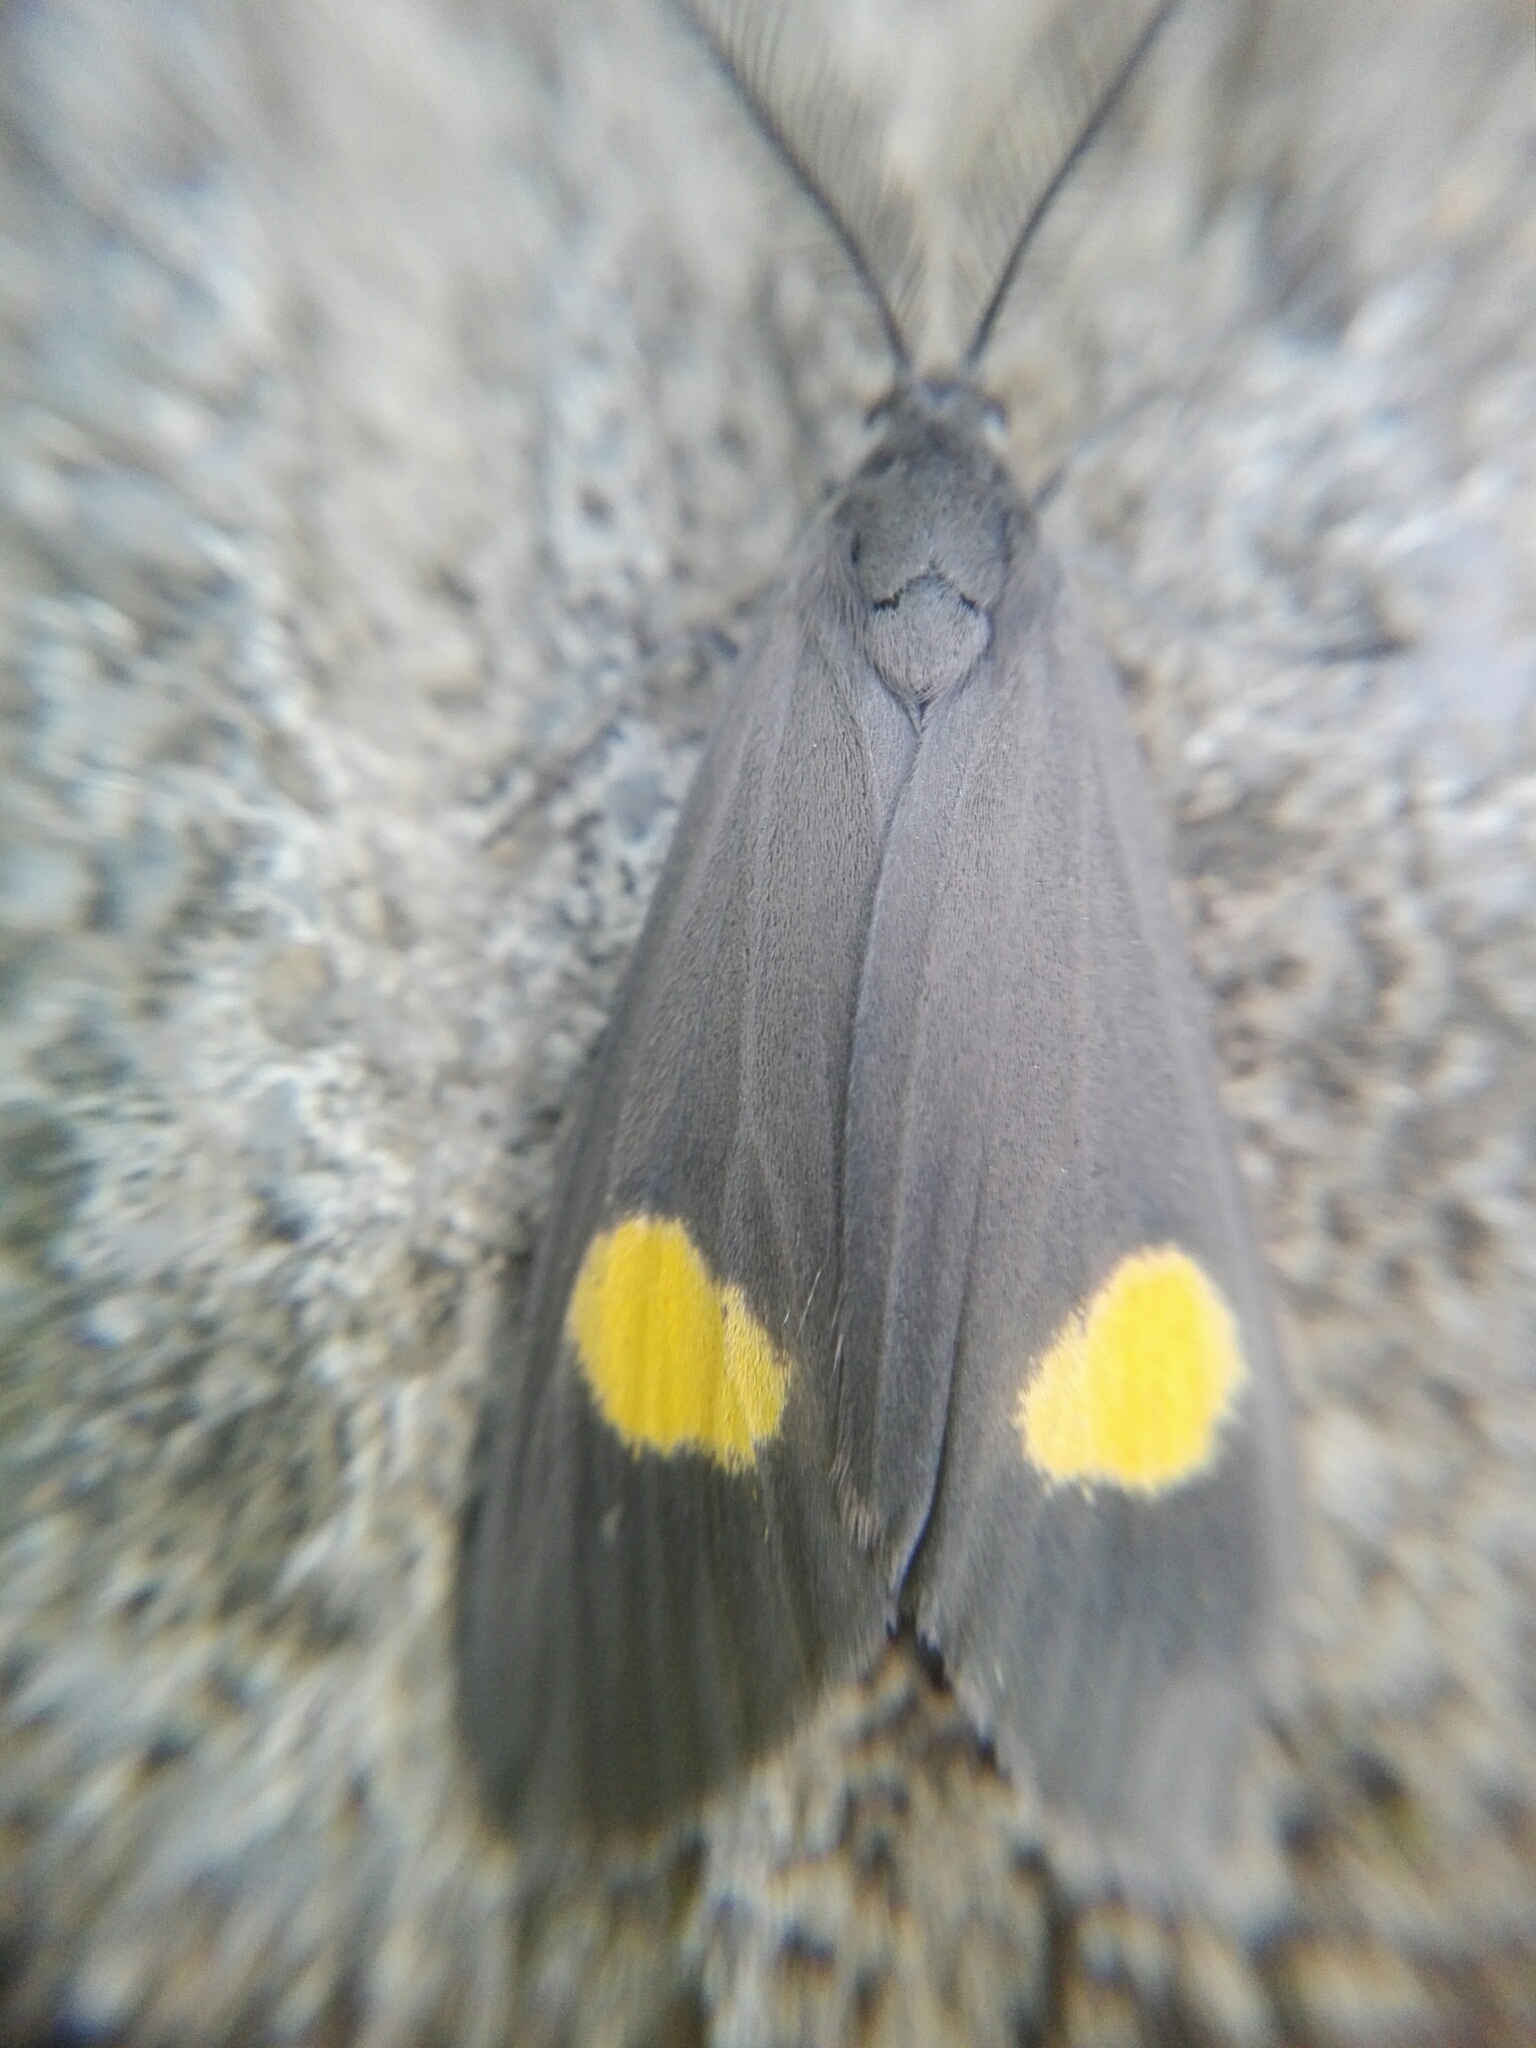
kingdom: Animalia
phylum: Arthropoda
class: Insecta
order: Lepidoptera
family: Notodontidae
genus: Phryganidia
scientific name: Phryganidia naxa
